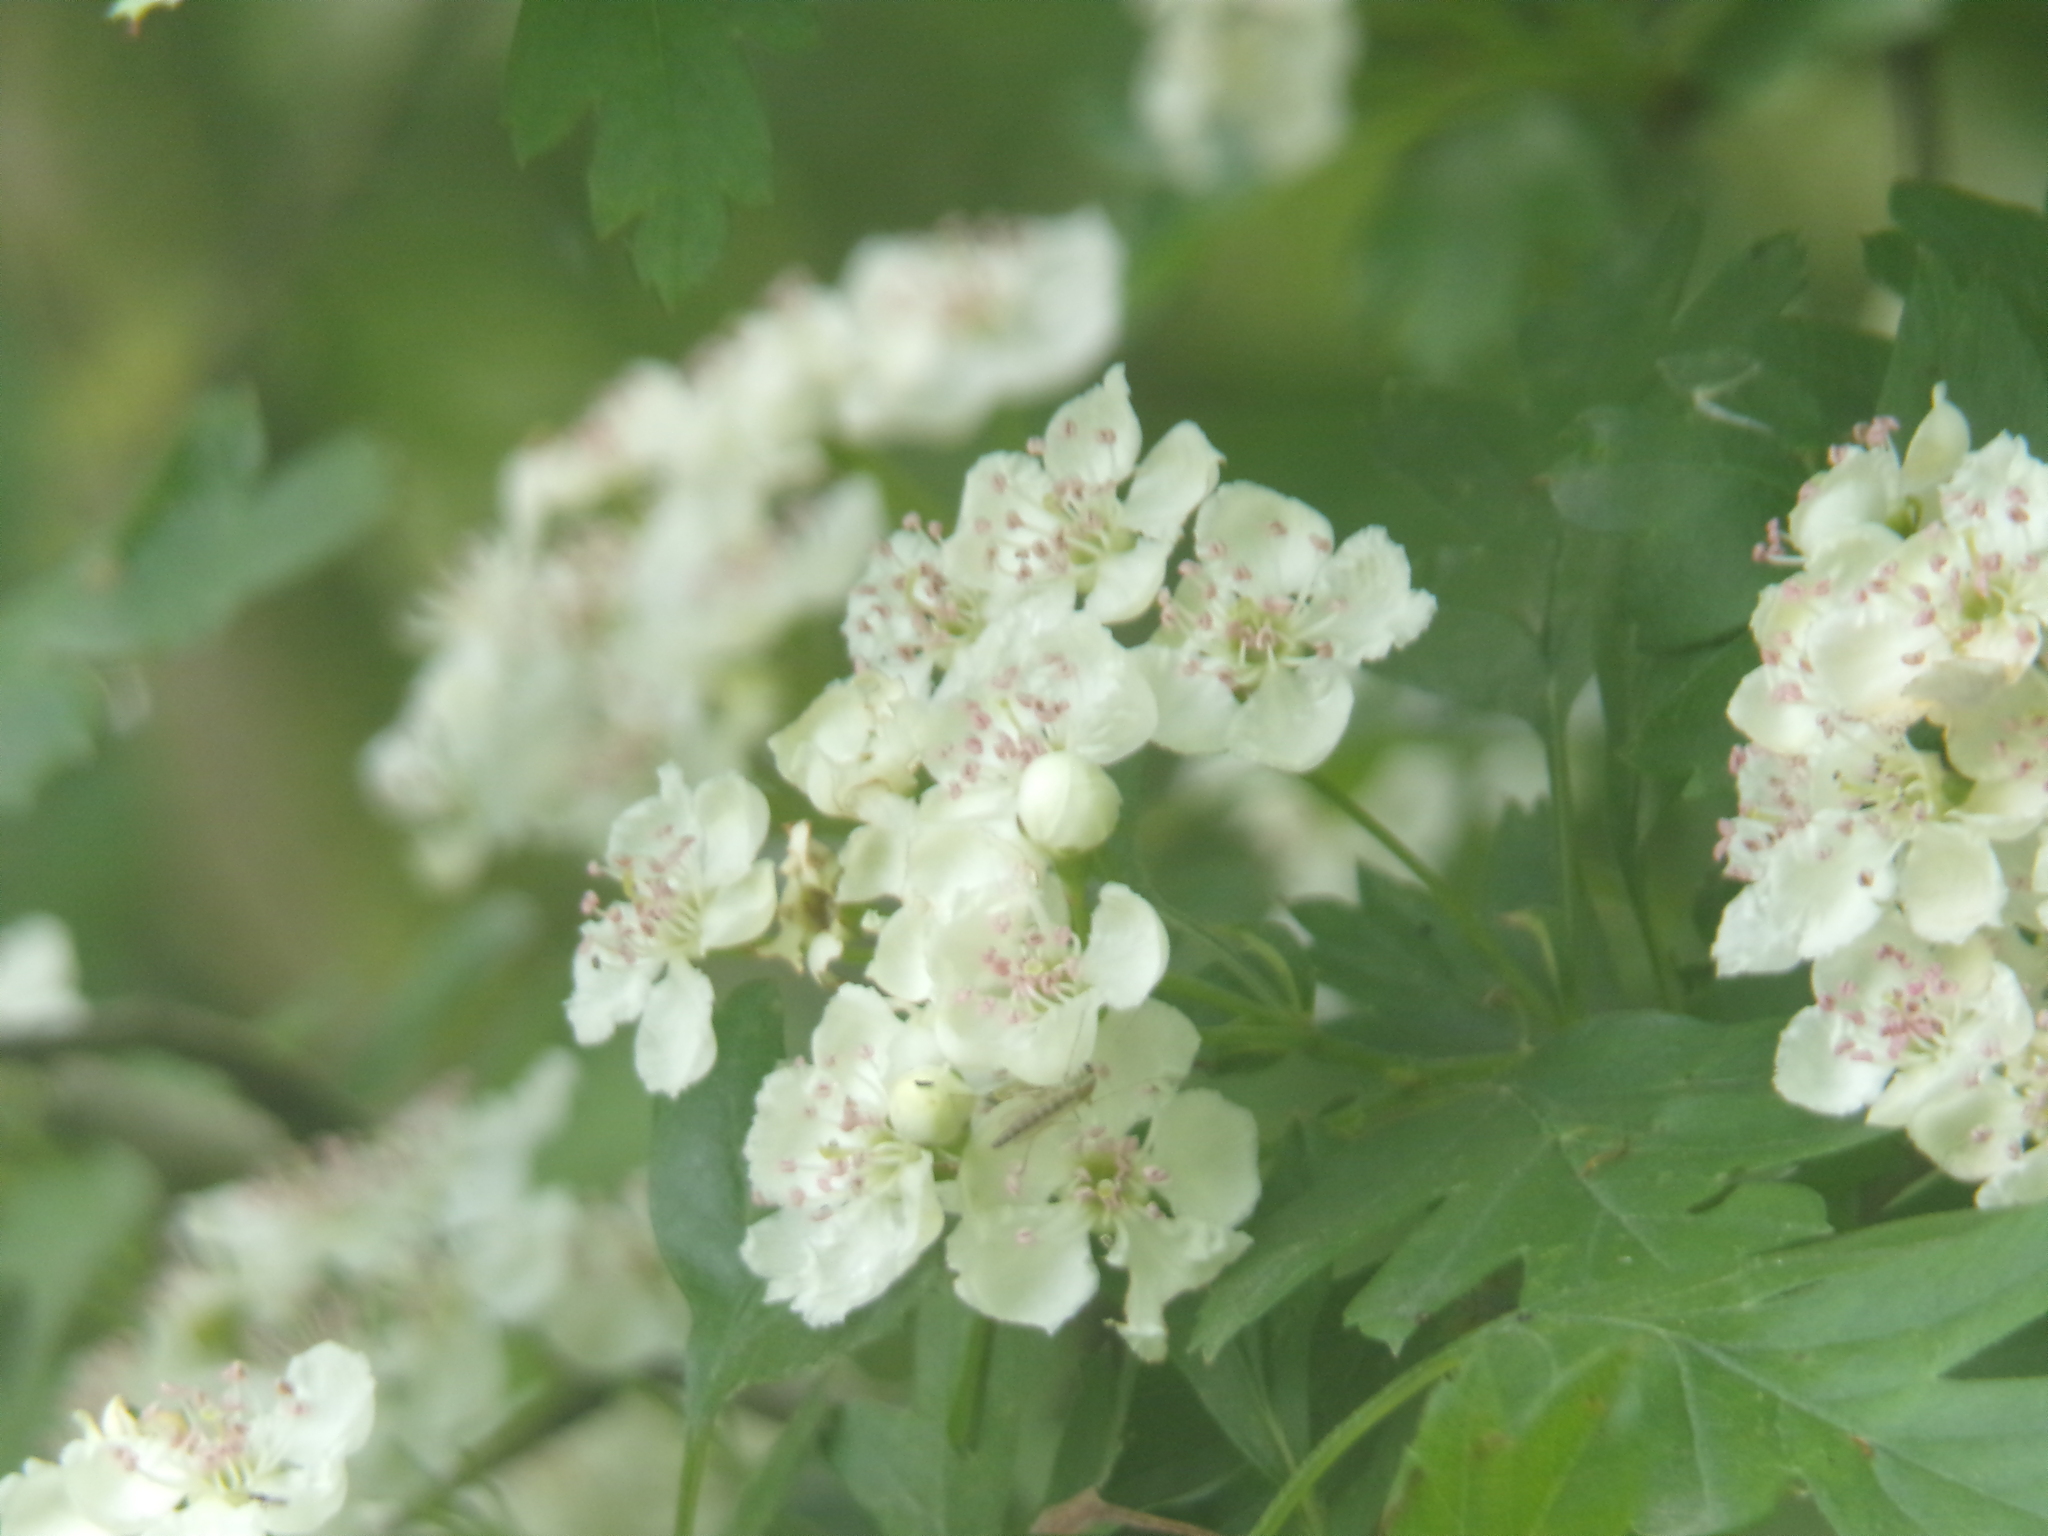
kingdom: Plantae
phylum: Tracheophyta
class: Magnoliopsida
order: Rosales
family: Rosaceae
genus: Crataegus
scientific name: Crataegus monogyna
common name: Hawthorn
